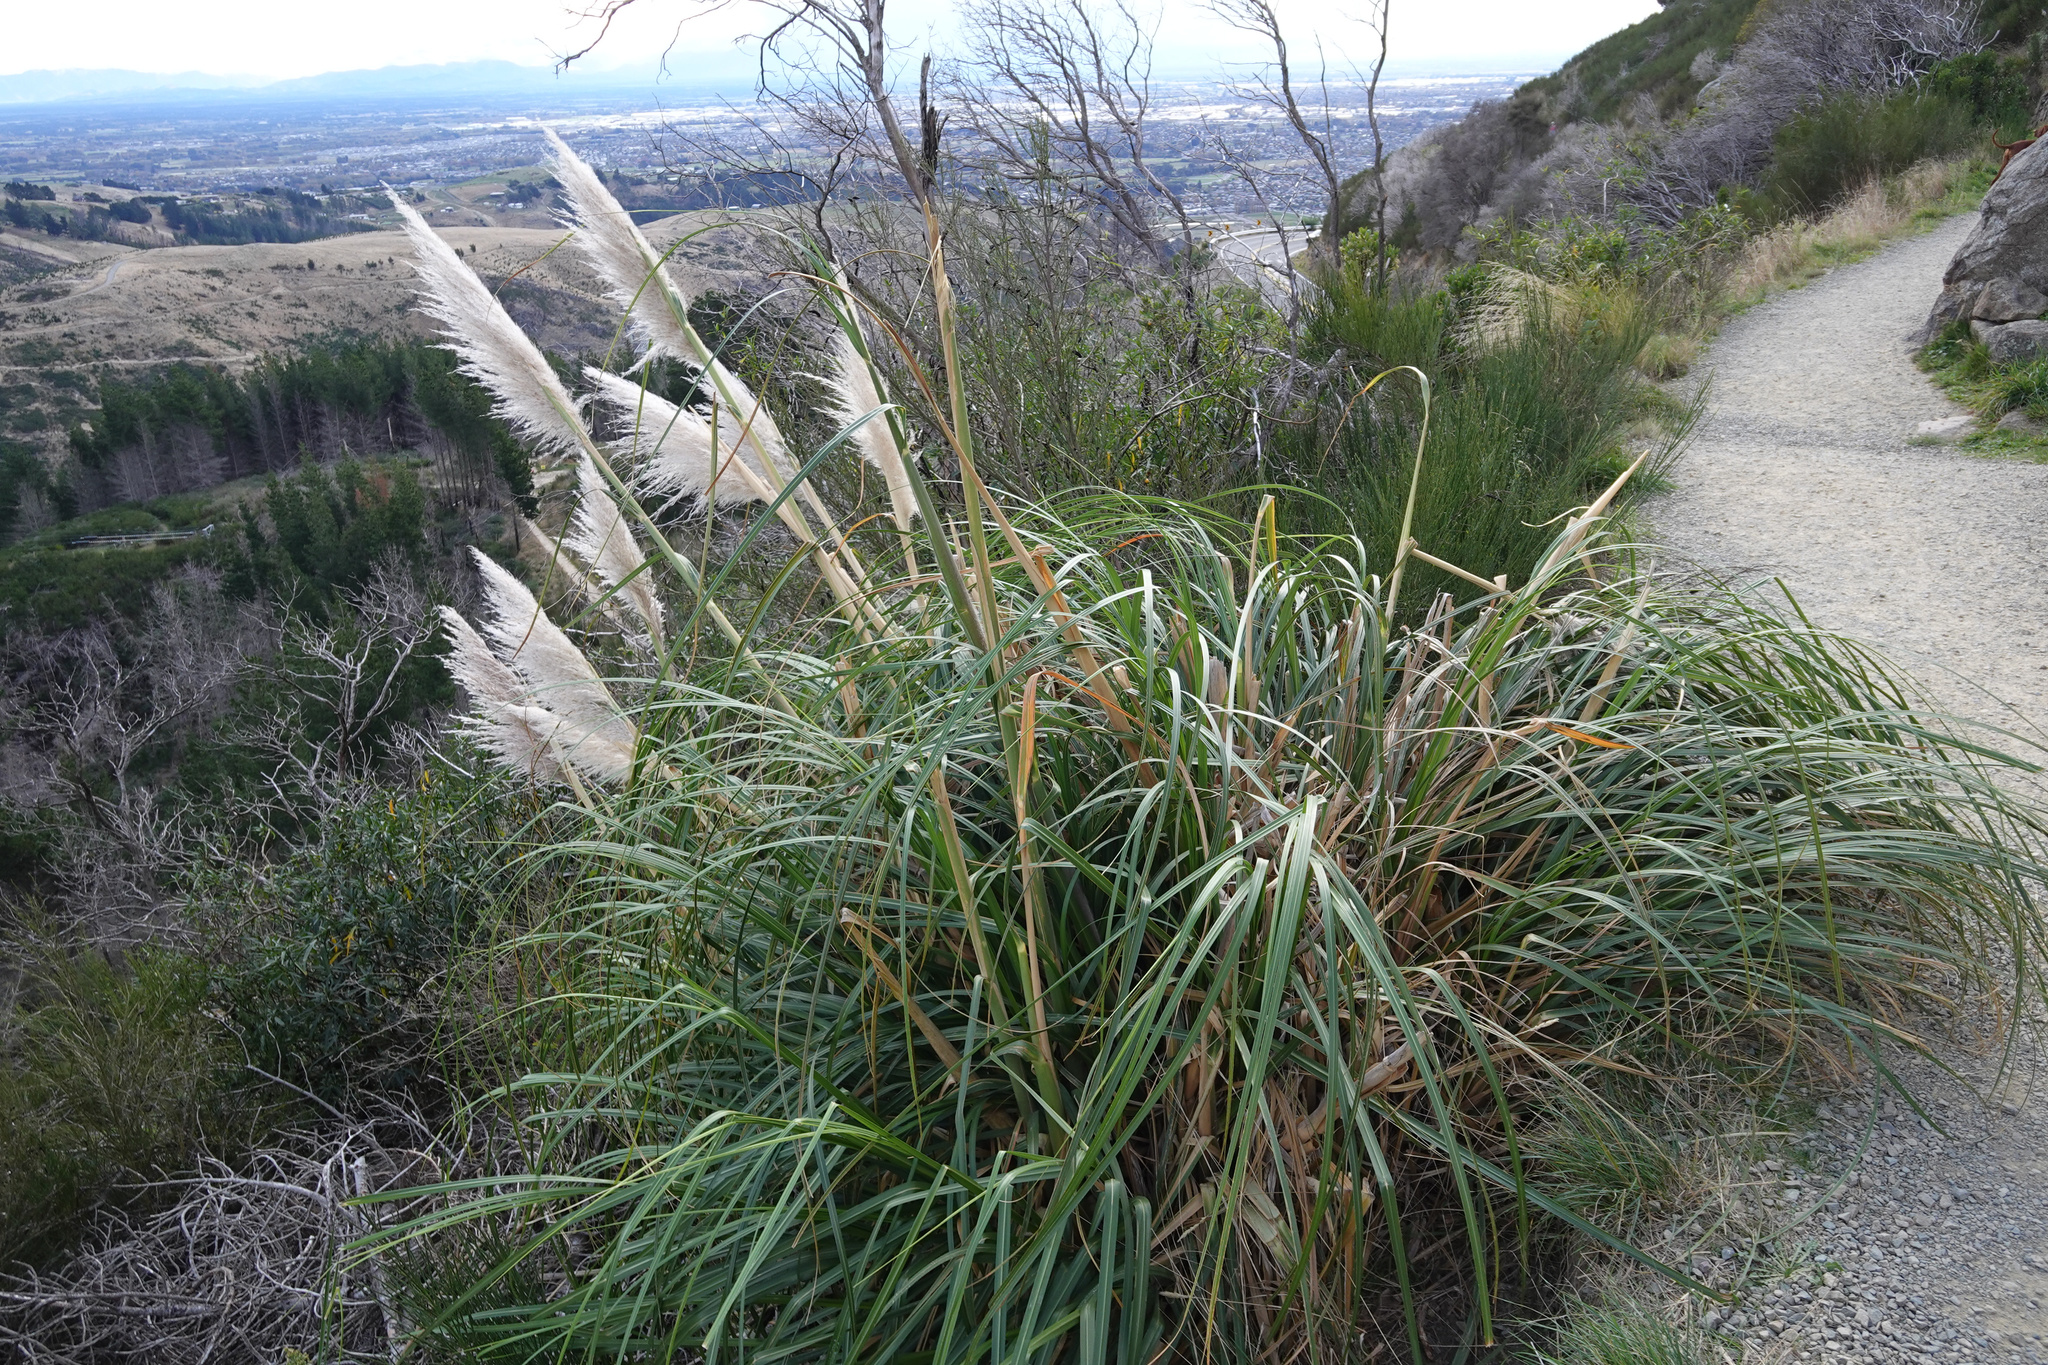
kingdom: Plantae
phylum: Tracheophyta
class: Liliopsida
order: Poales
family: Poaceae
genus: Cortaderia
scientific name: Cortaderia selloana
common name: Uruguayan pampas grass
